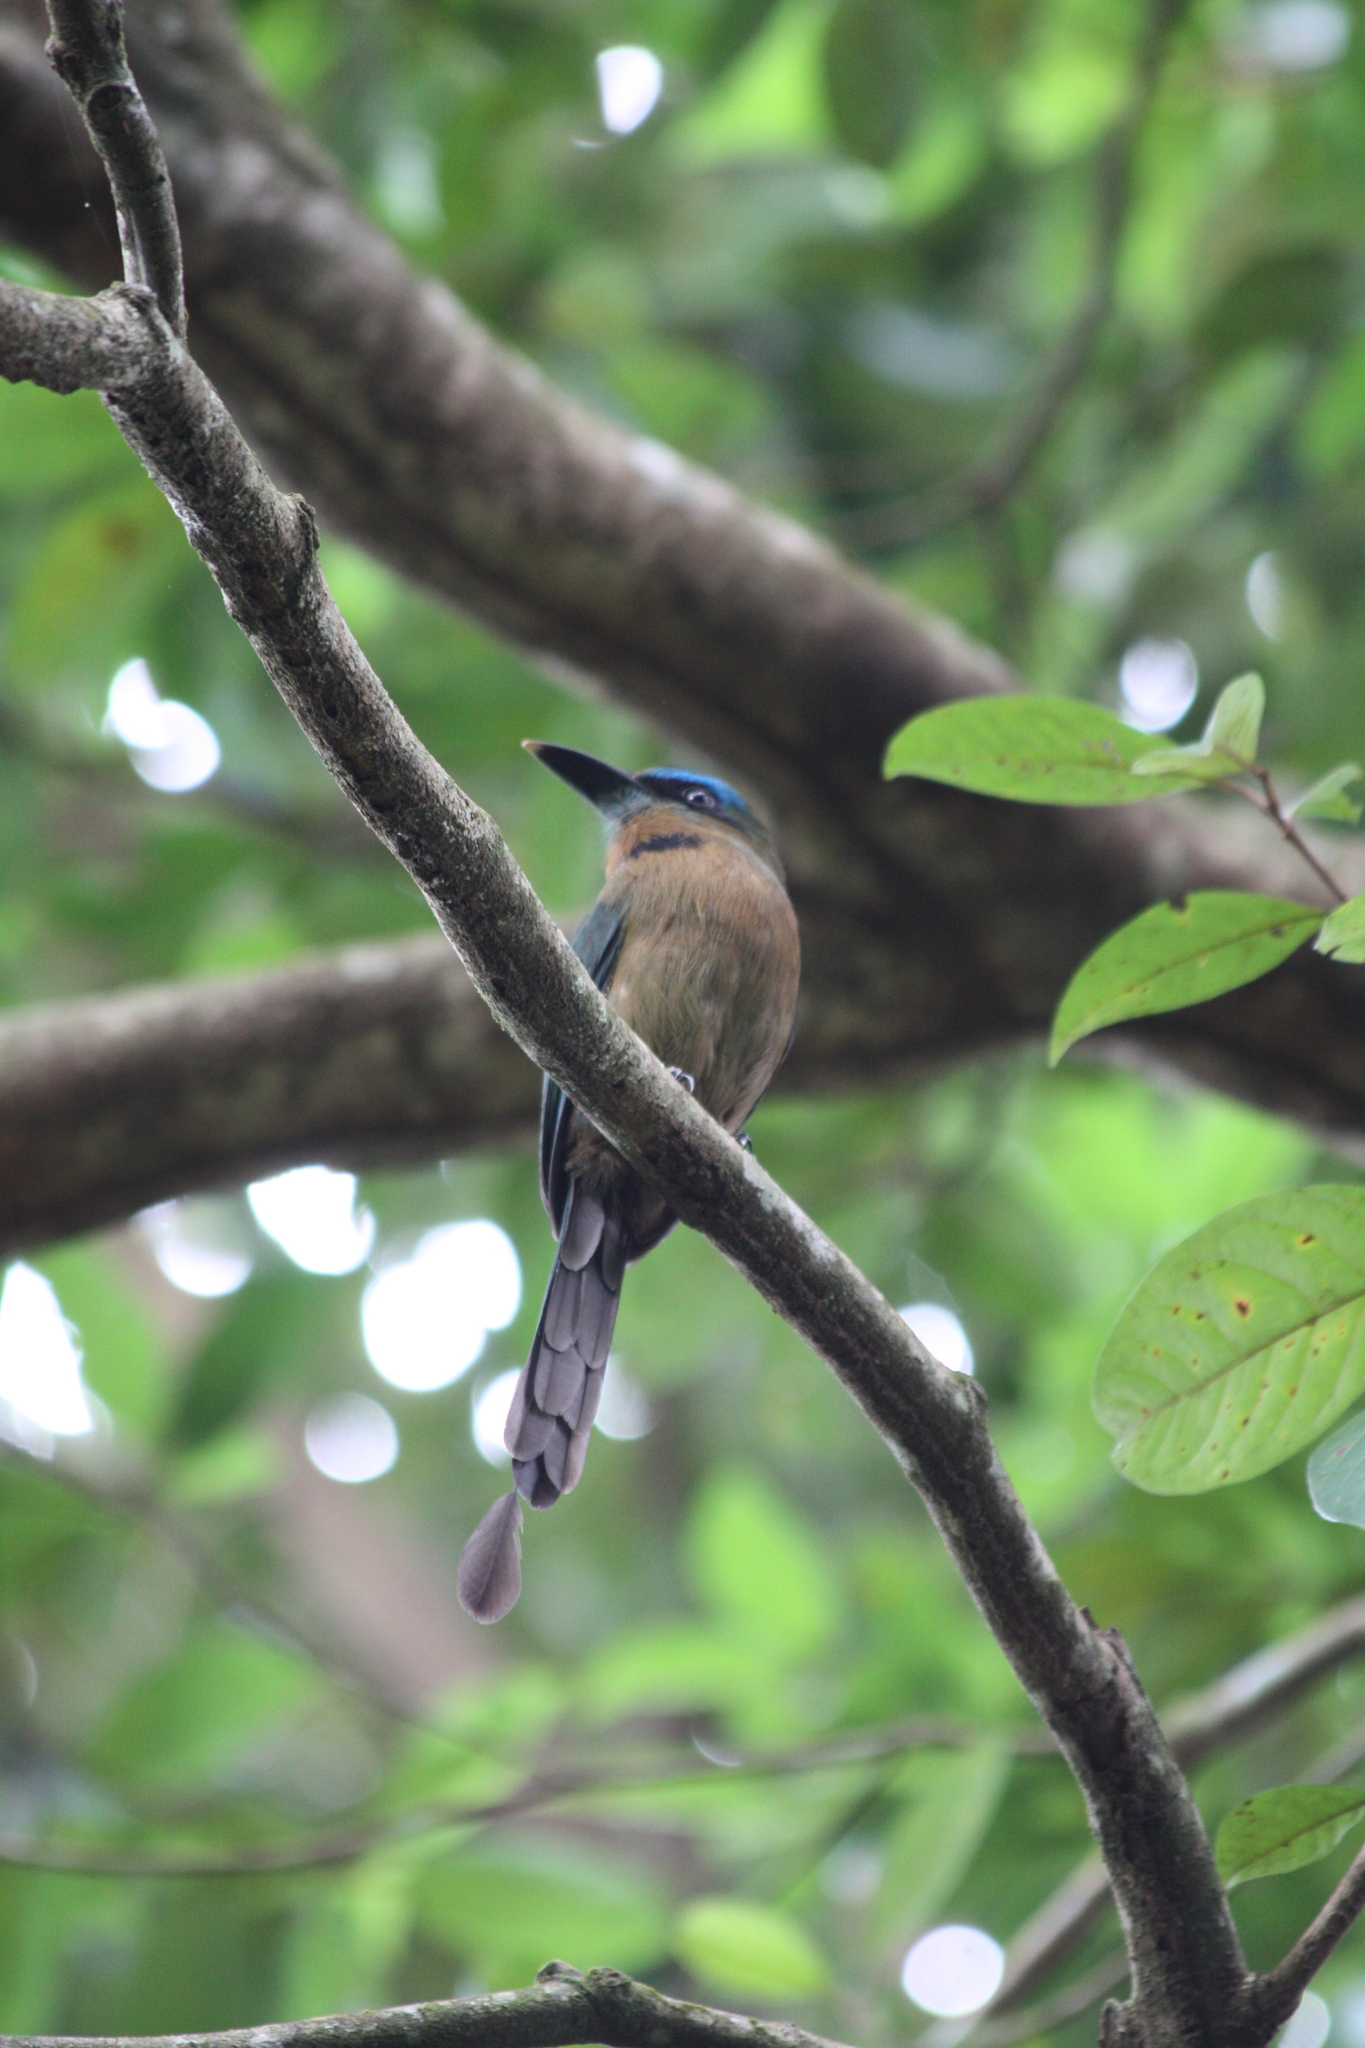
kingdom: Animalia
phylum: Chordata
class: Aves
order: Coraciiformes
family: Momotidae
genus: Electron
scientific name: Electron carinatum
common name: Keel-billed motmot
